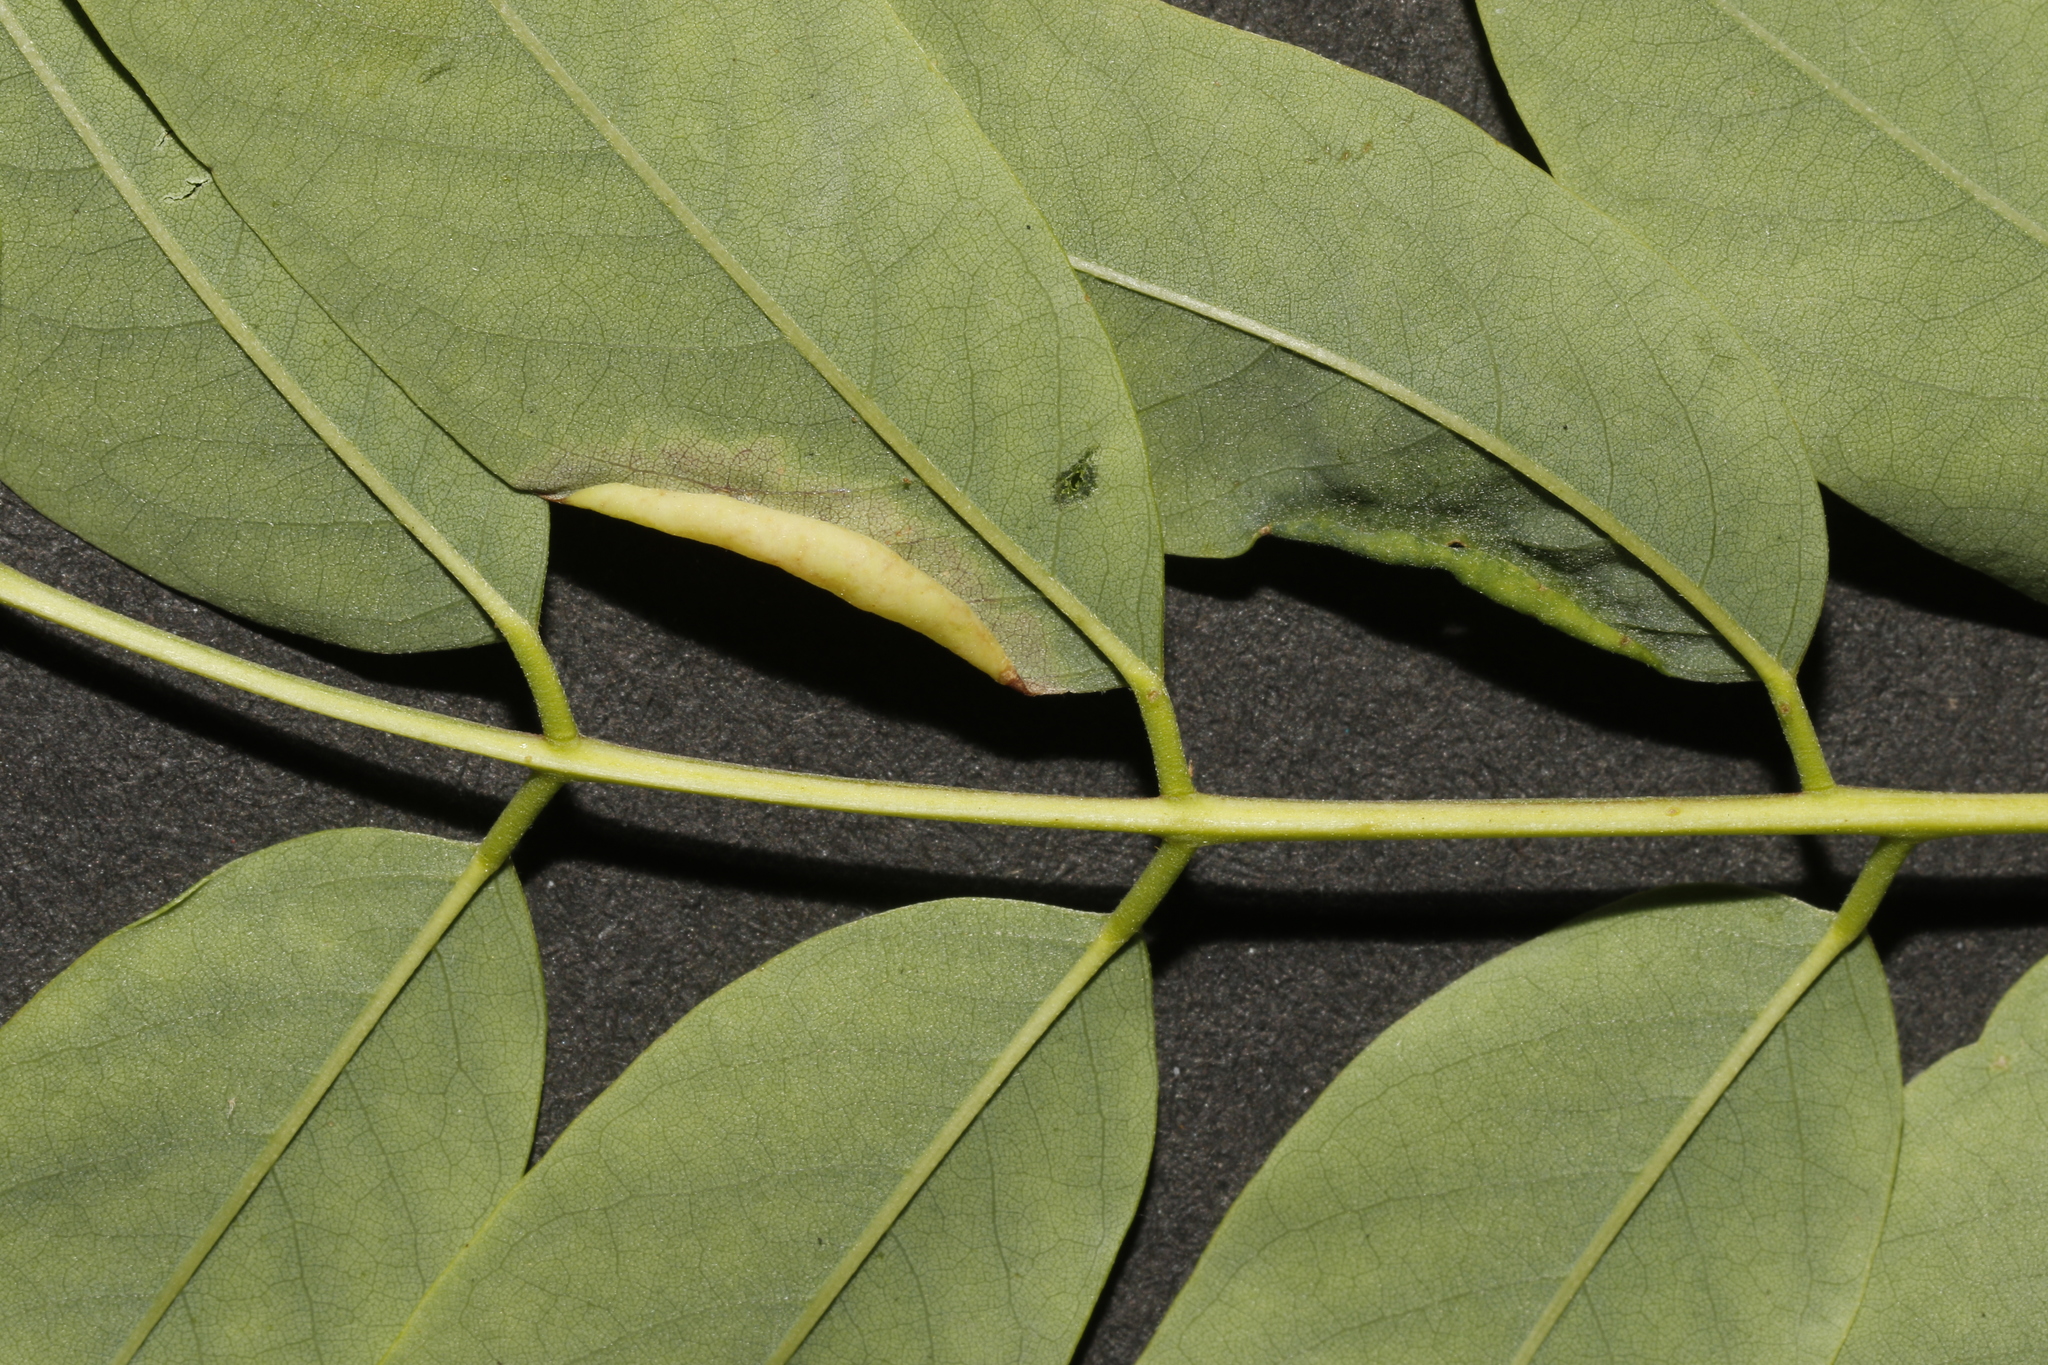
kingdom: Animalia
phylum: Arthropoda
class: Insecta
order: Diptera
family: Cecidomyiidae
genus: Obolodiplosis
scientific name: Obolodiplosis robiniae
